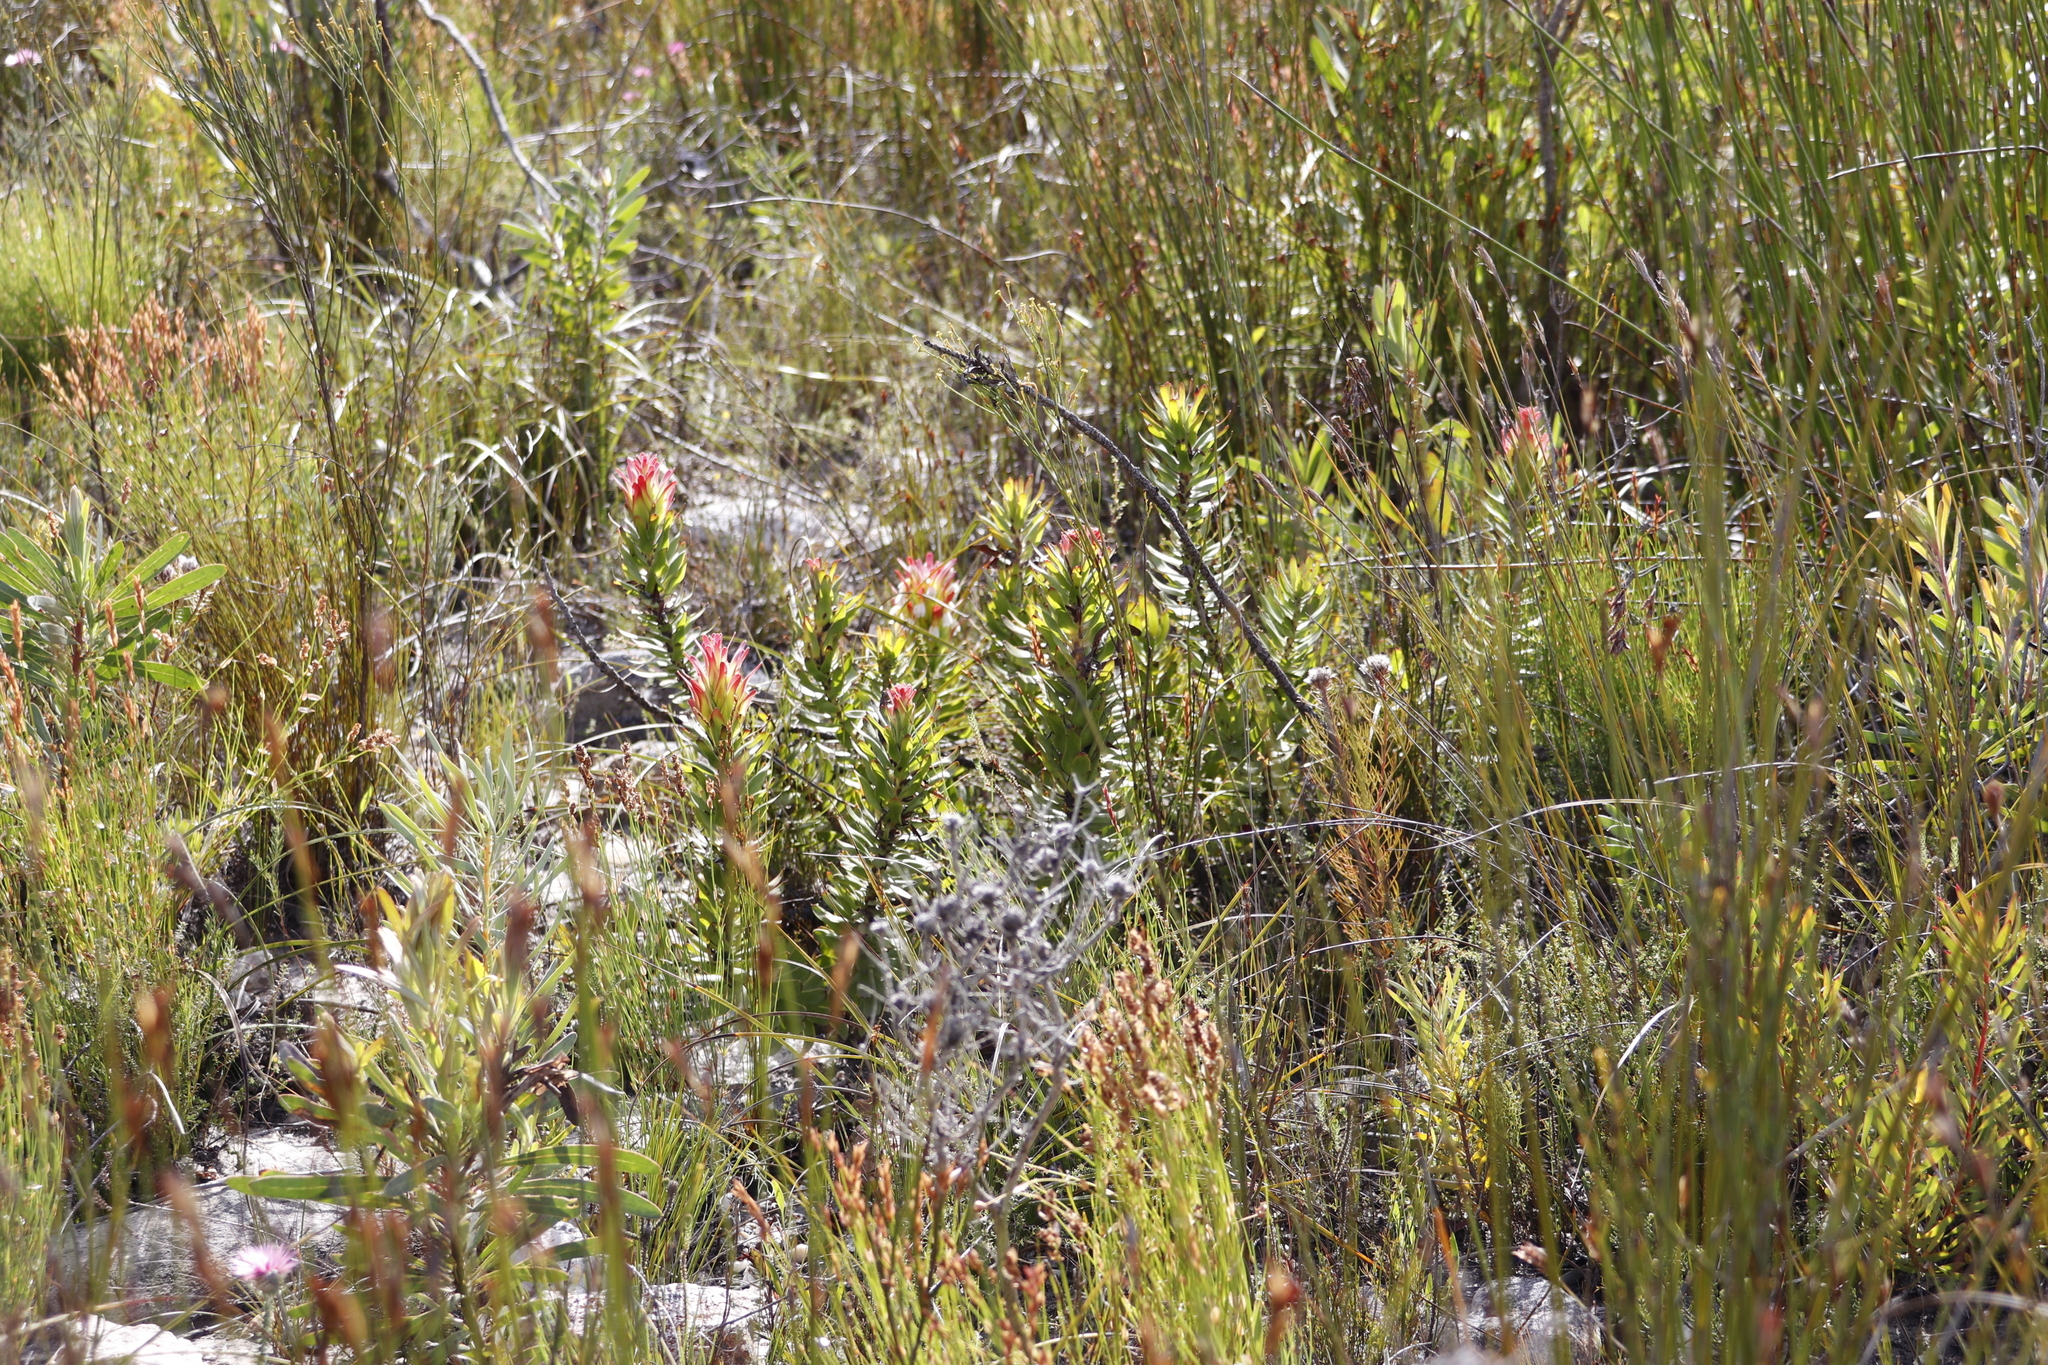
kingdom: Plantae
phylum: Tracheophyta
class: Magnoliopsida
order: Proteales
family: Proteaceae
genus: Mimetes
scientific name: Mimetes cucullatus
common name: Common pagoda
